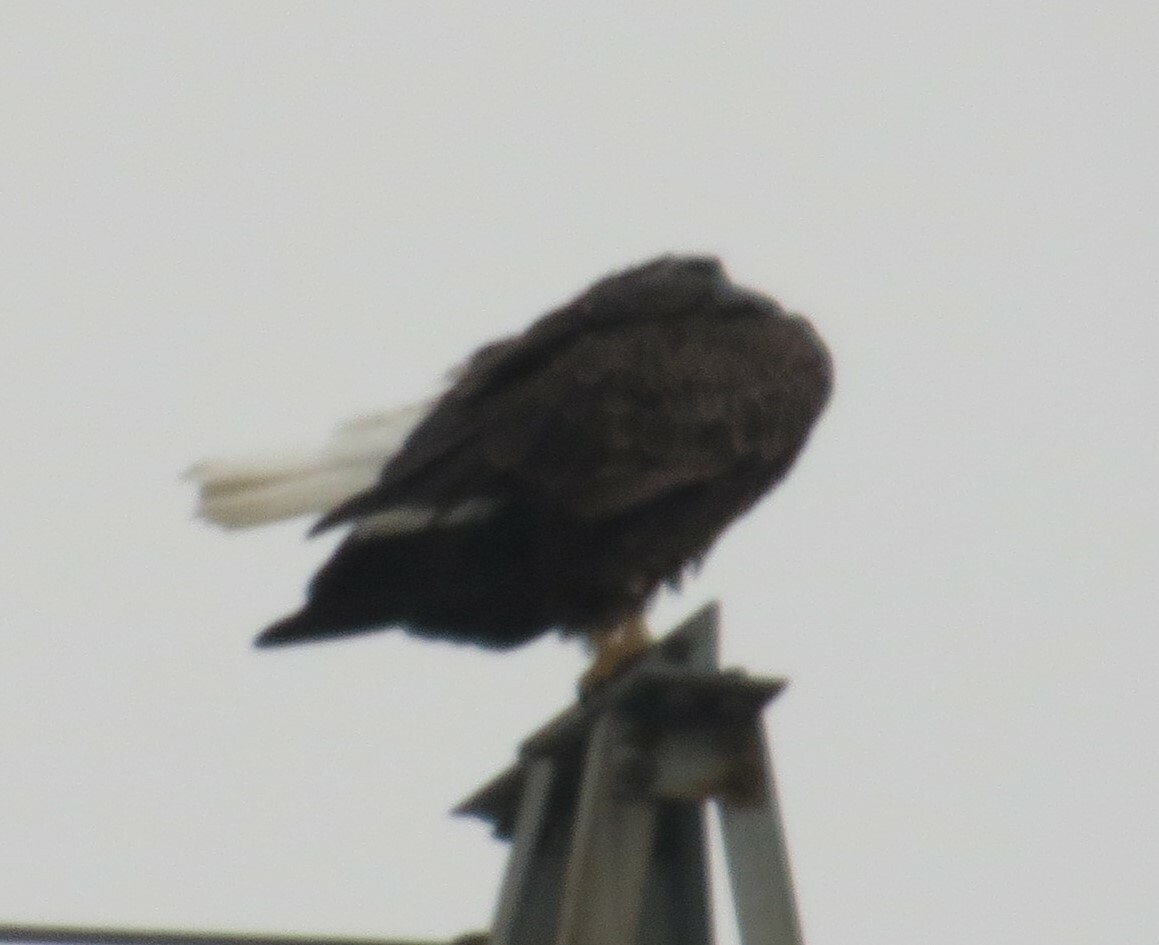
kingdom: Animalia
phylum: Chordata
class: Aves
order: Accipitriformes
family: Accipitridae
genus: Haliaeetus
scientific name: Haliaeetus leucocephalus
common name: Bald eagle
